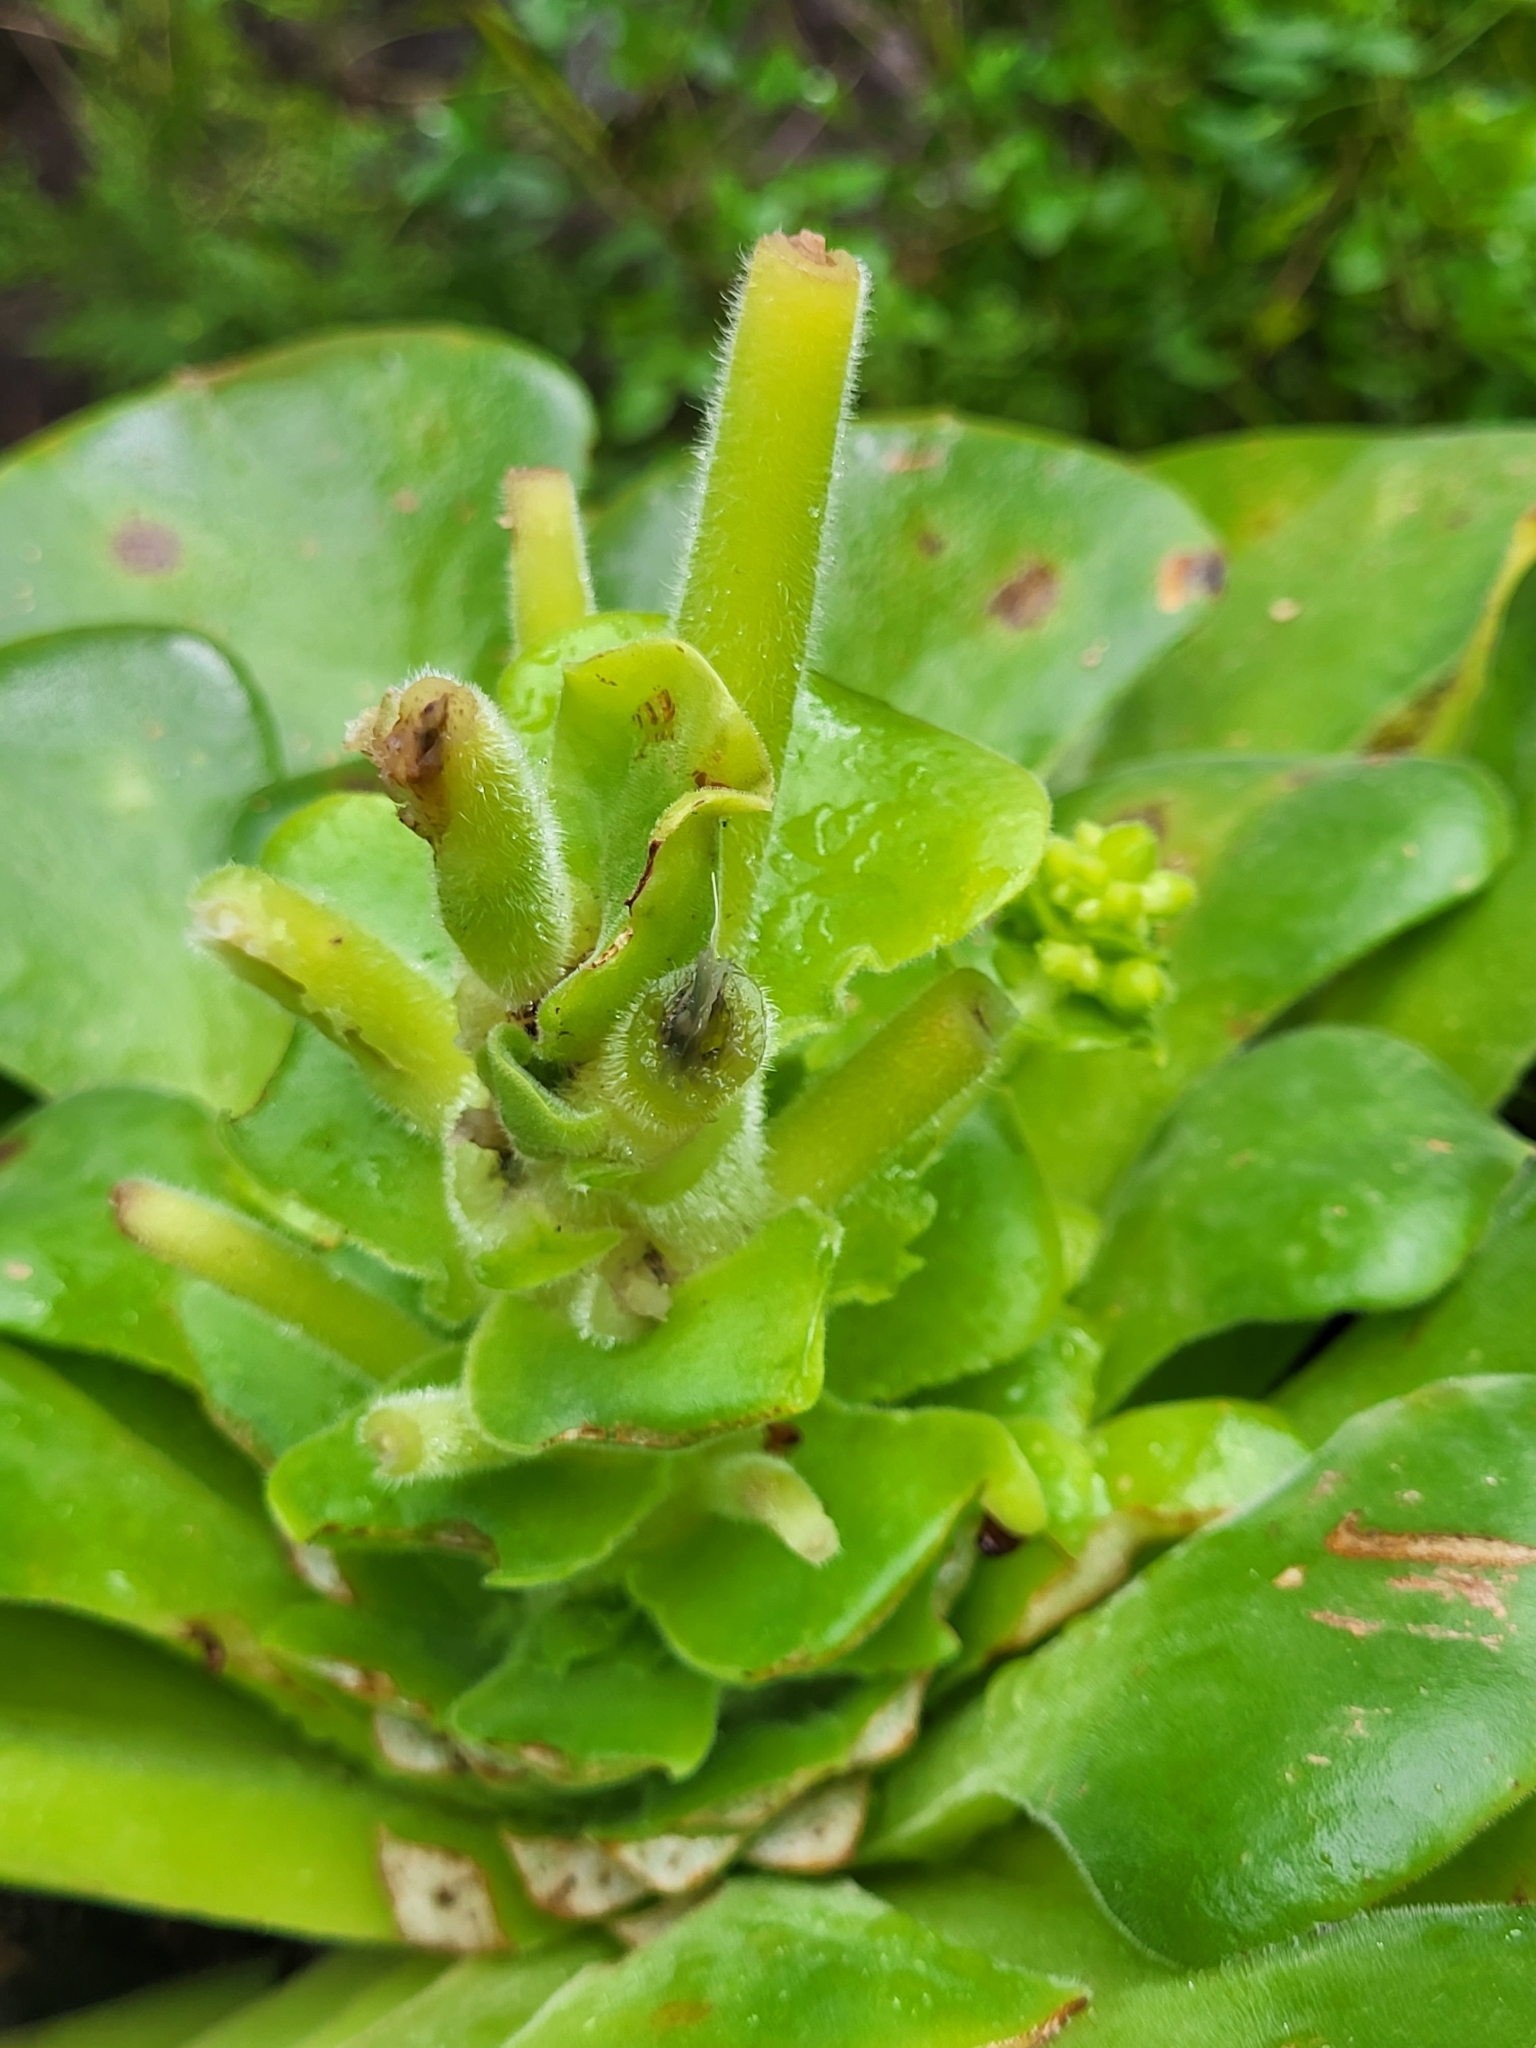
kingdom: Plantae
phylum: Tracheophyta
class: Magnoliopsida
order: Saxifragales
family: Crassulaceae
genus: Aeonium
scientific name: Aeonium canariense
